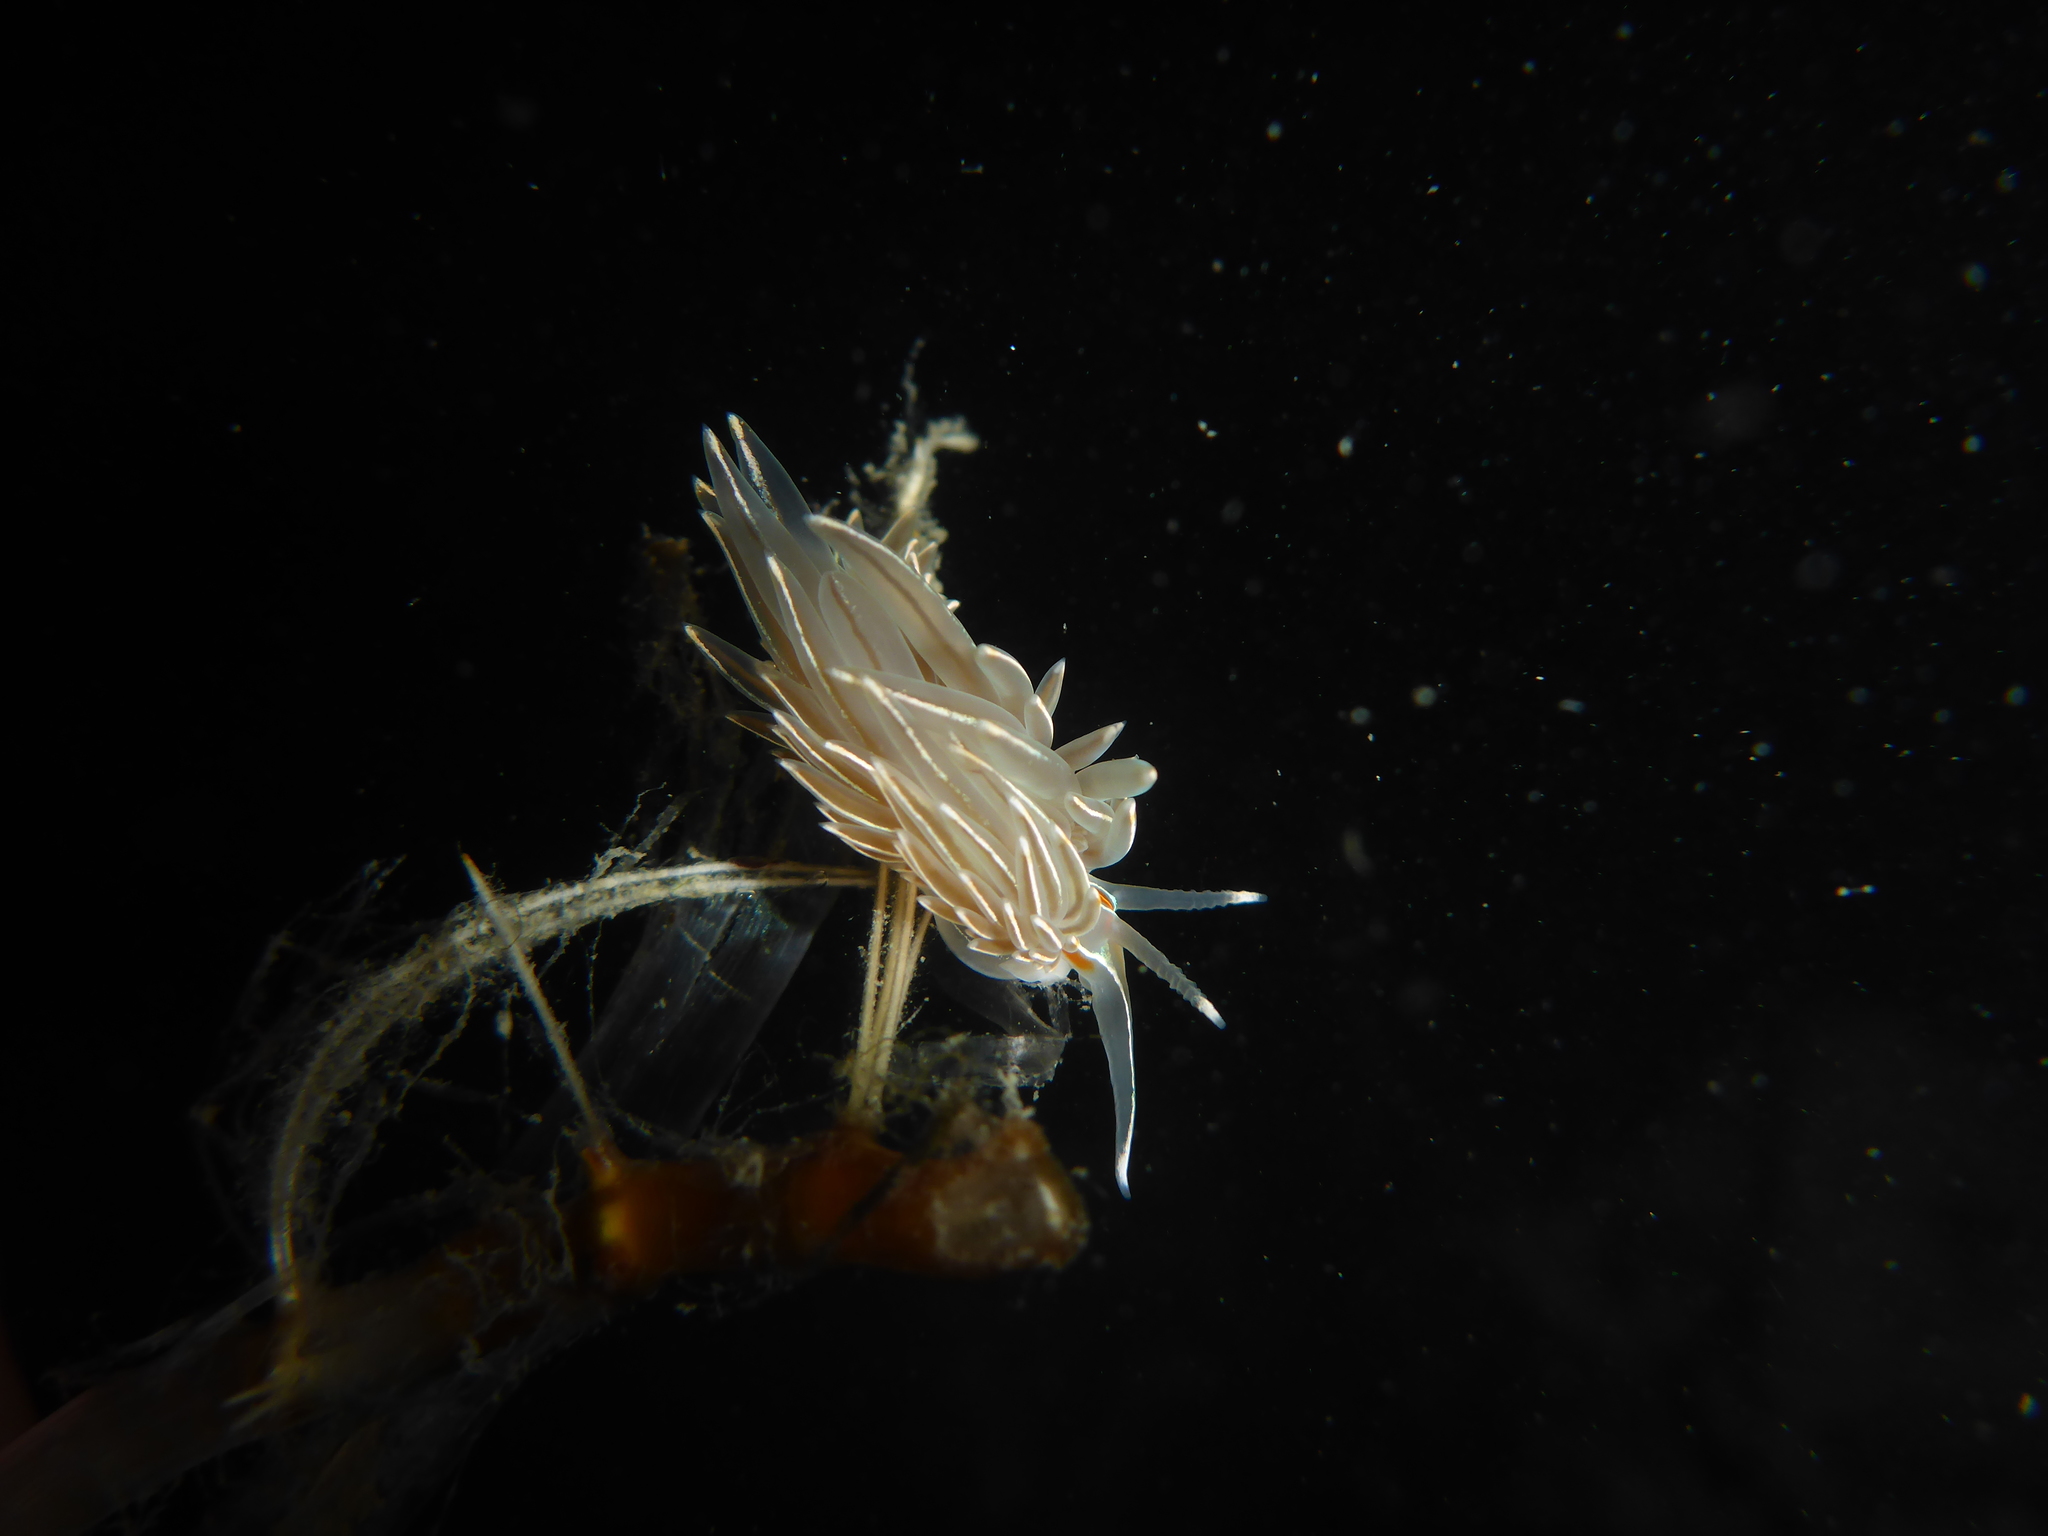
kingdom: Animalia
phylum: Mollusca
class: Gastropoda
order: Nudibranchia
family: Myrrhinidae
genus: Hermissenda
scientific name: Hermissenda crassicornis
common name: Hermissenda
